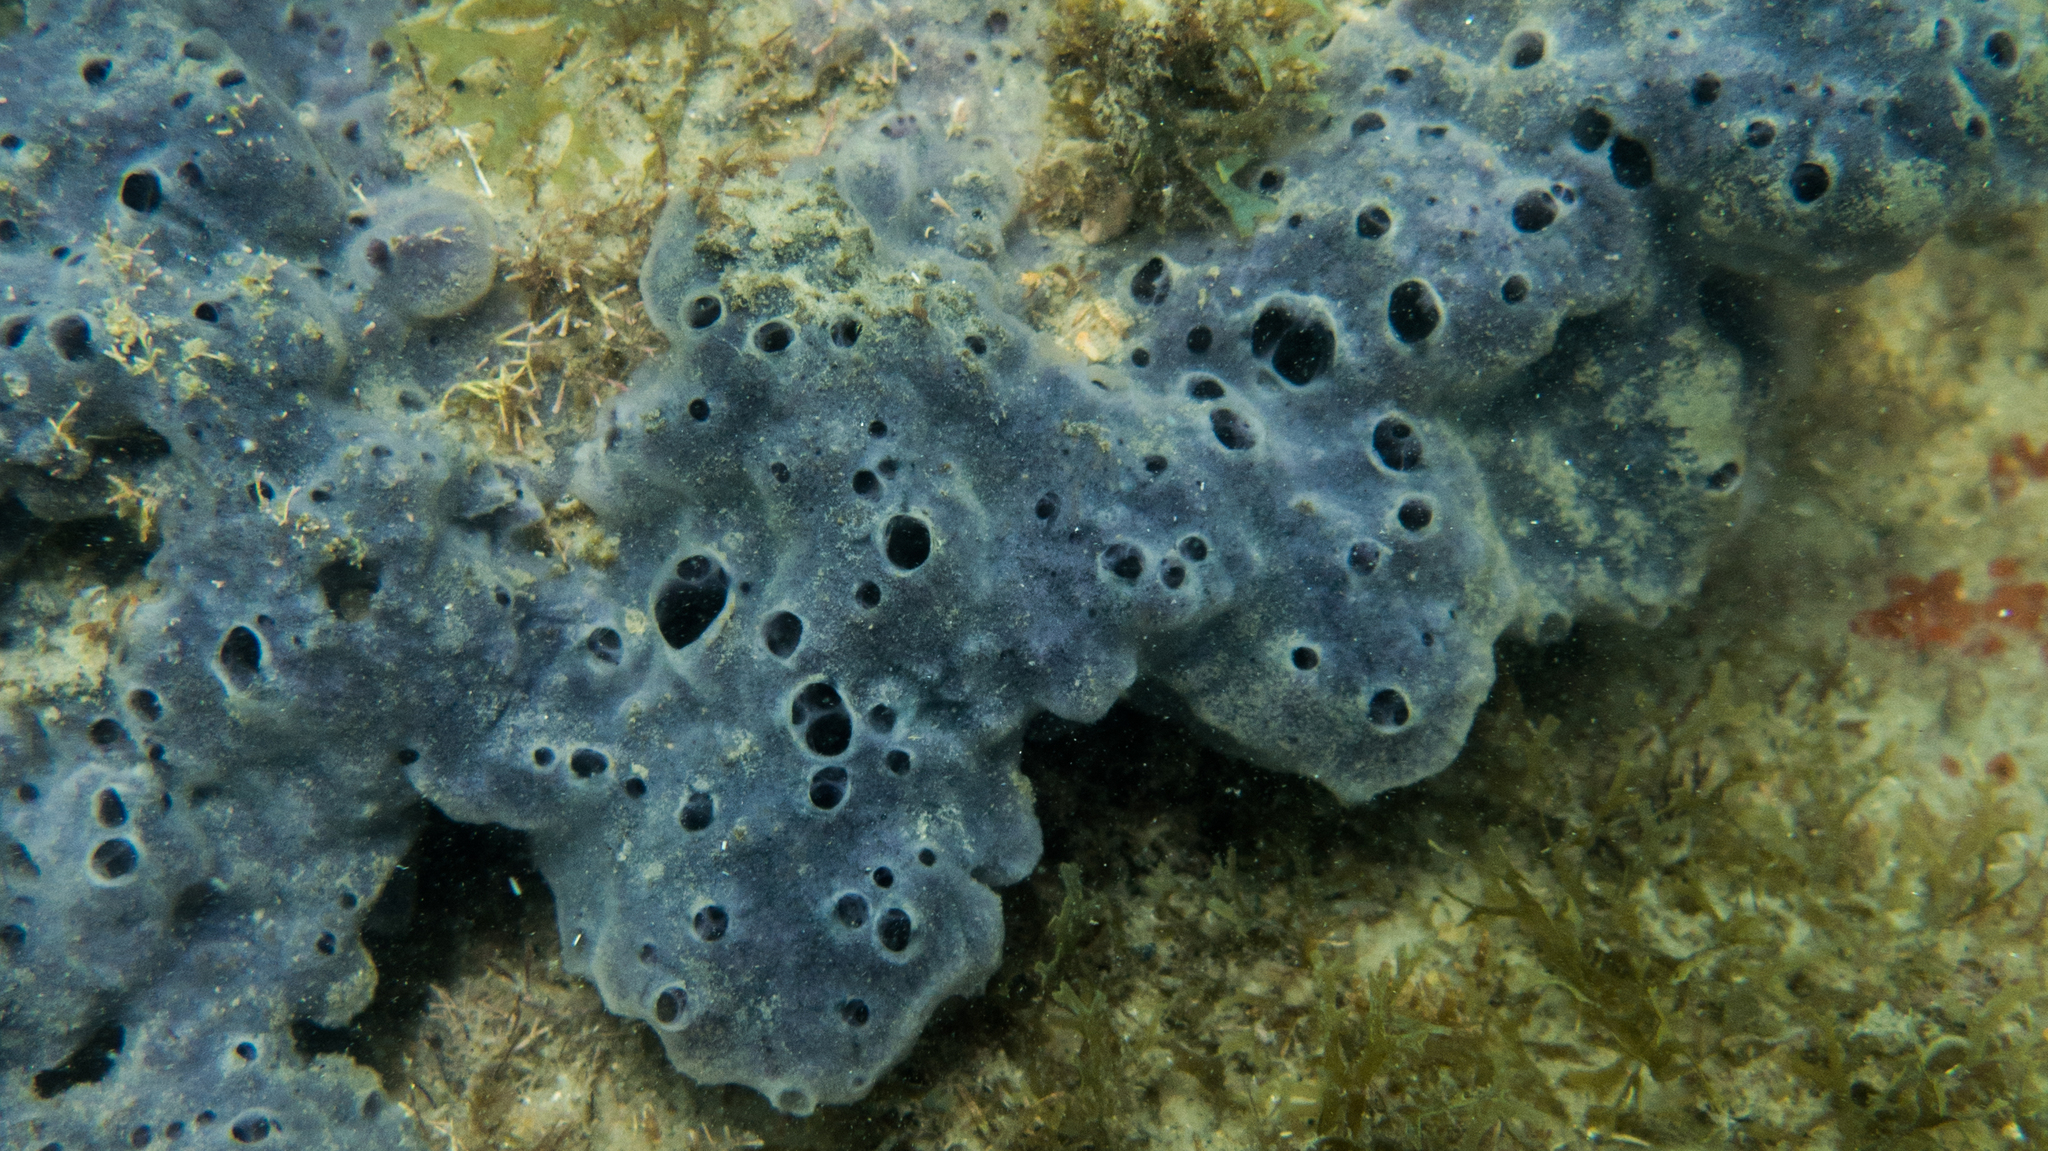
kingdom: Animalia
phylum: Porifera
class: Demospongiae
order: Poecilosclerida
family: Mycalidae
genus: Mycale
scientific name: Mycale angulosa
